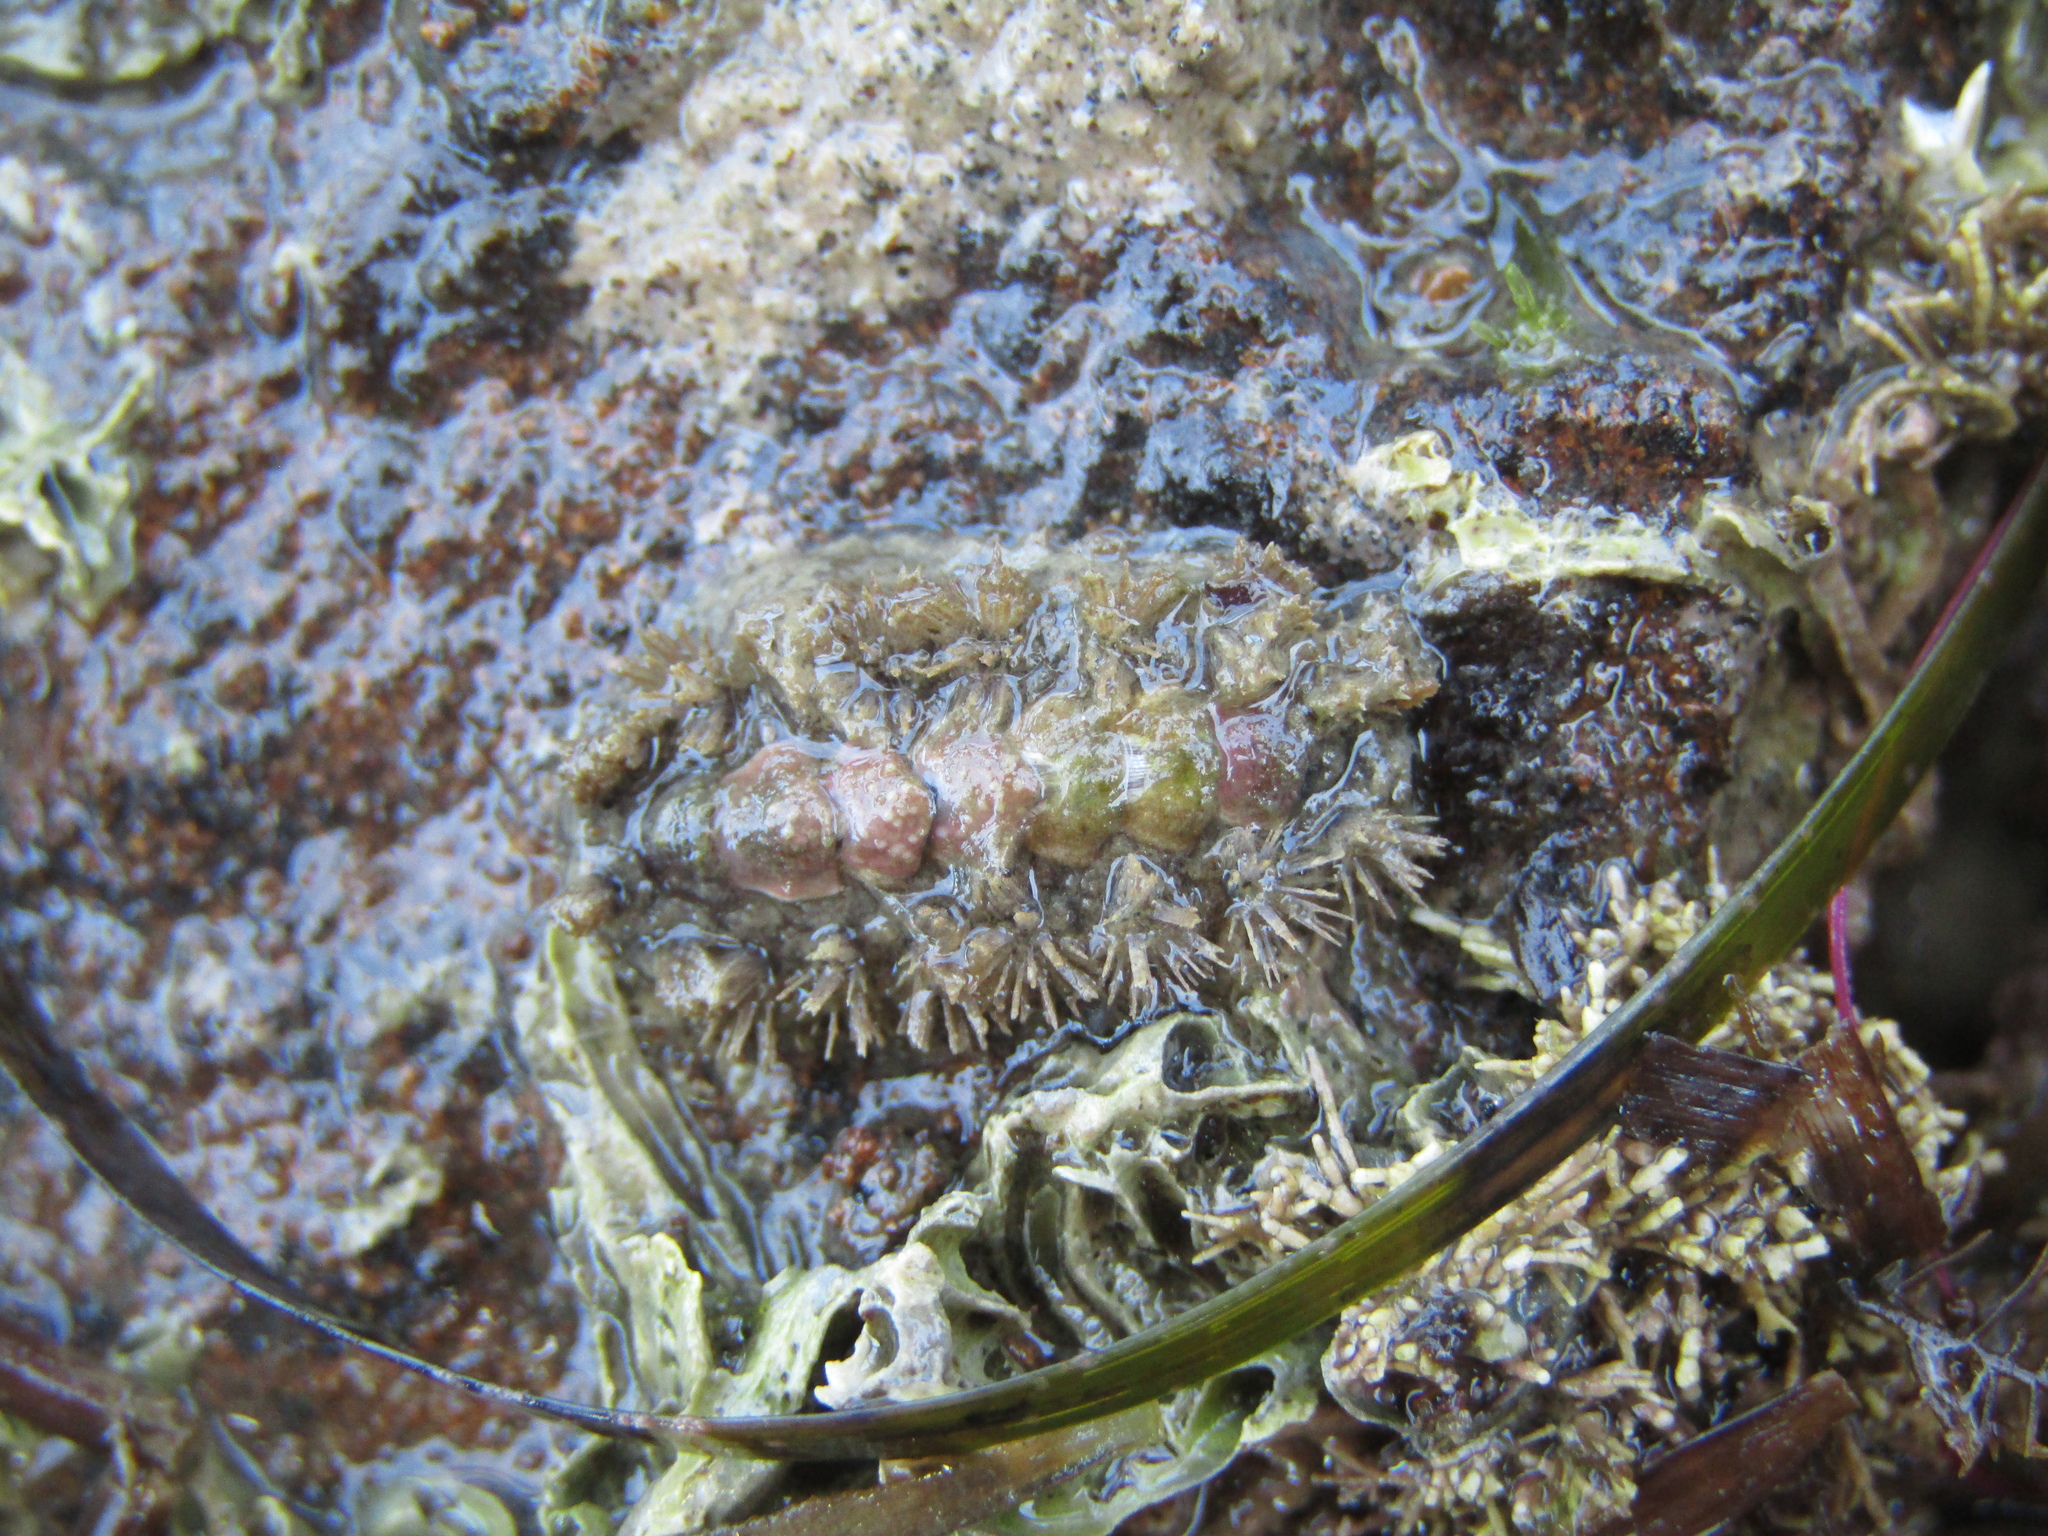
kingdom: Animalia
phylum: Mollusca
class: Polyplacophora
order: Chitonida
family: Acanthochitonidae
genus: Acanthochitona
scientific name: Acanthochitona zelandica
